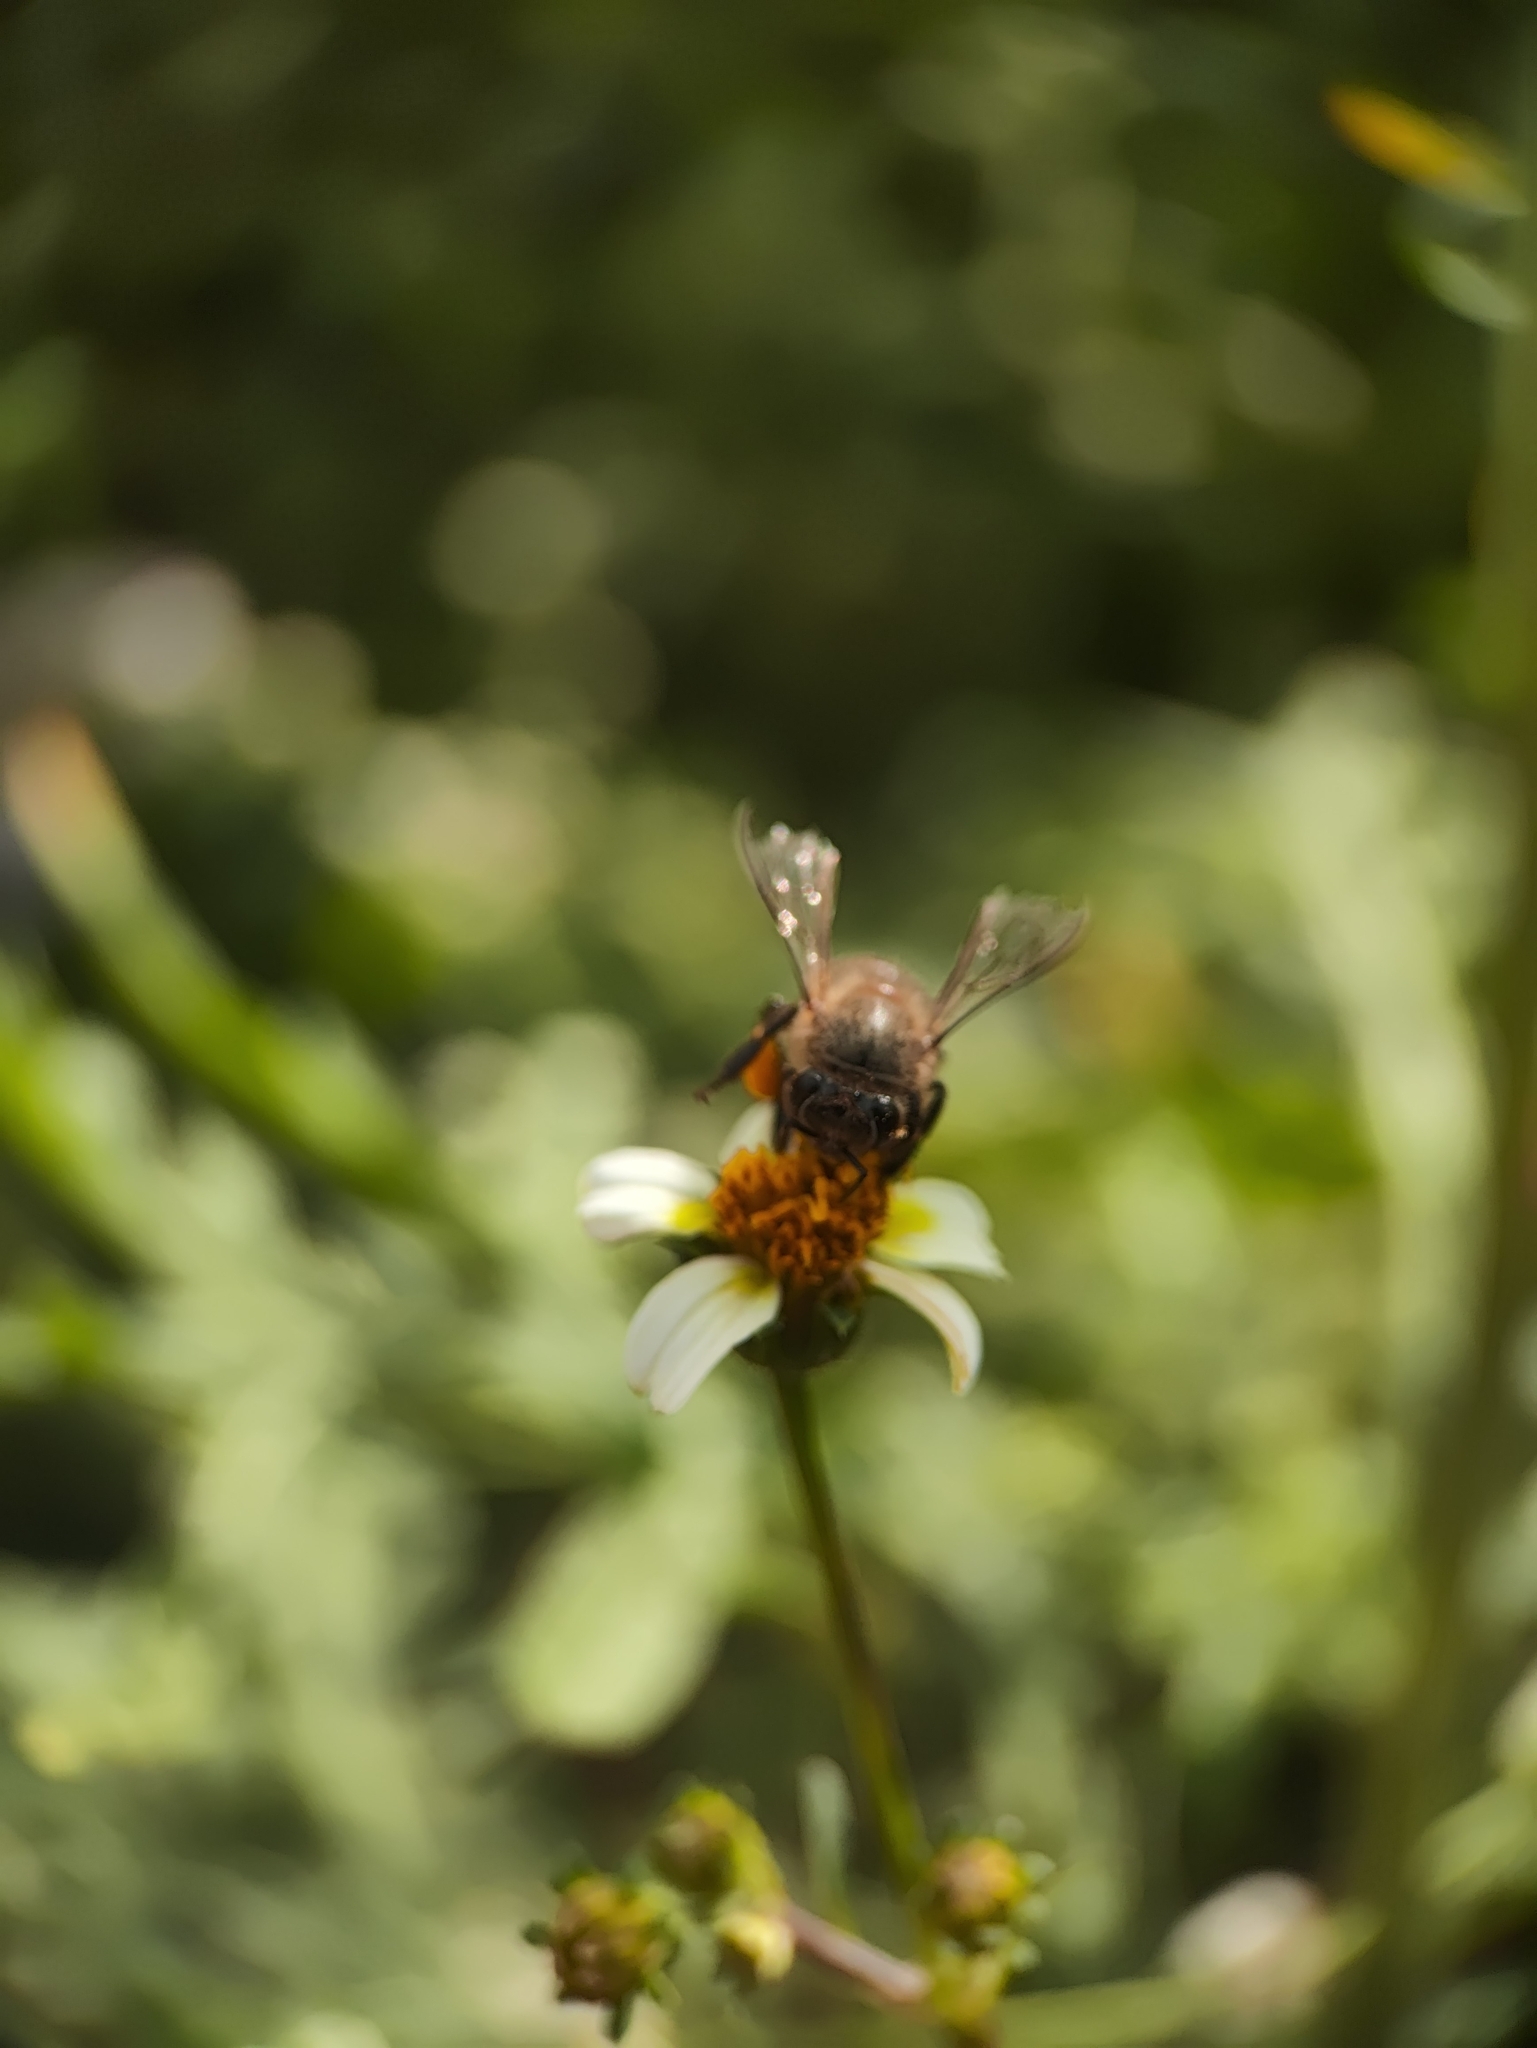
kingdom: Animalia
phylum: Arthropoda
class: Insecta
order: Hymenoptera
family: Apidae
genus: Apis
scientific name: Apis cerana
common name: Honey bee
